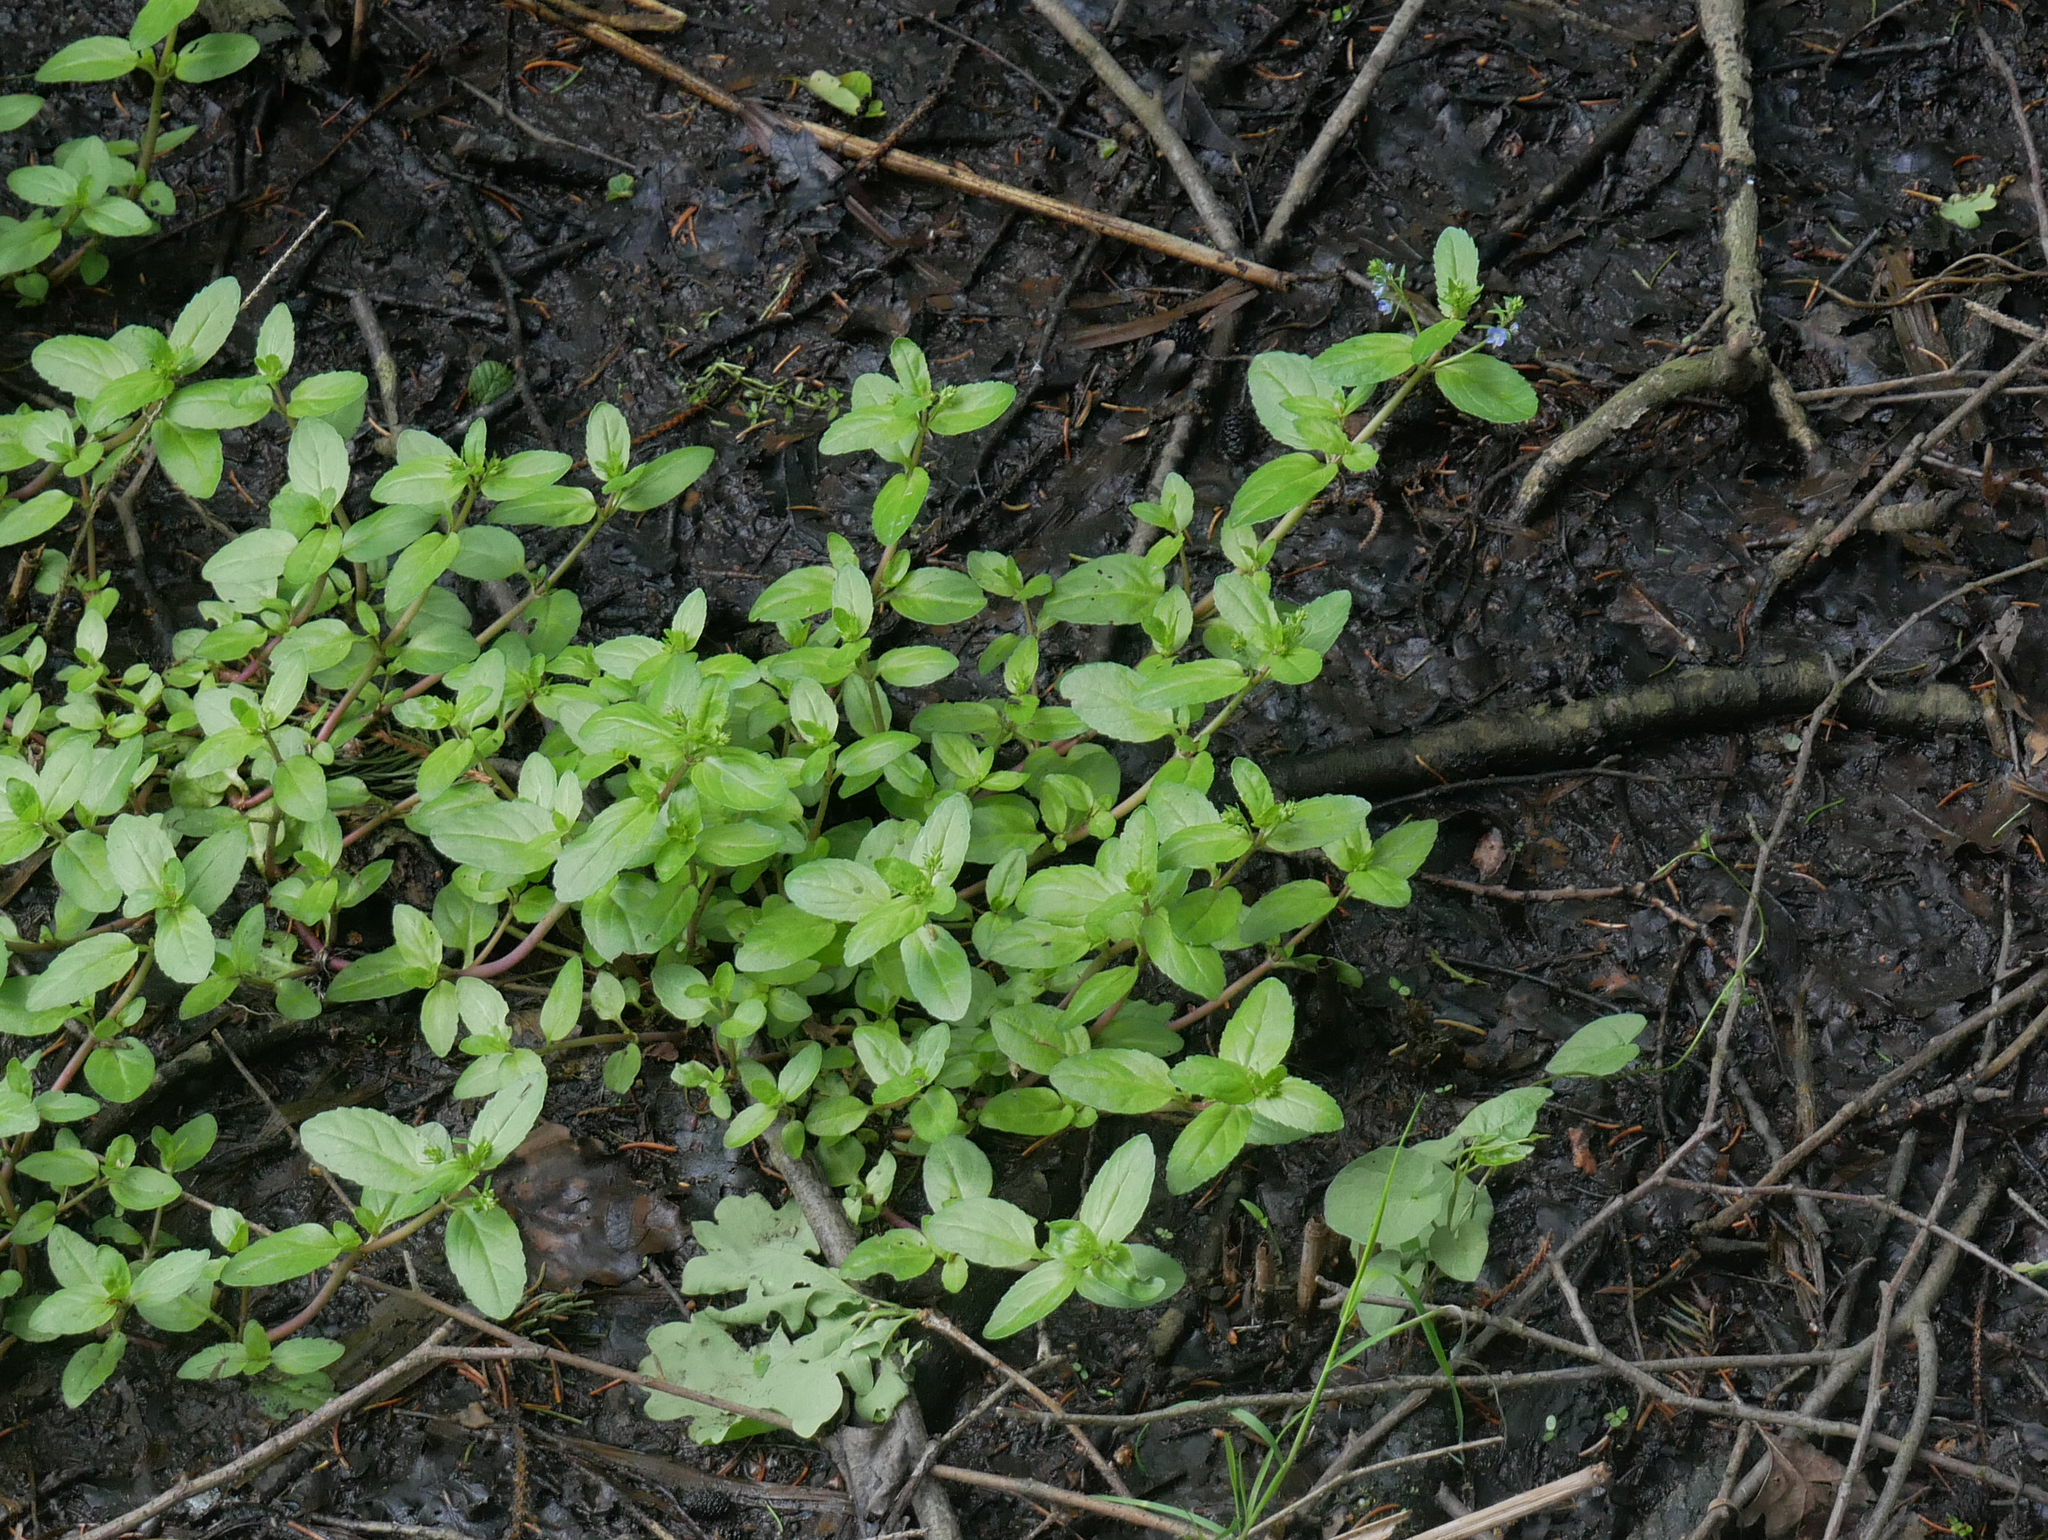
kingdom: Plantae
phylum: Tracheophyta
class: Magnoliopsida
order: Lamiales
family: Plantaginaceae
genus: Veronica
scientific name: Veronica beccabunga
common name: Brooklime
